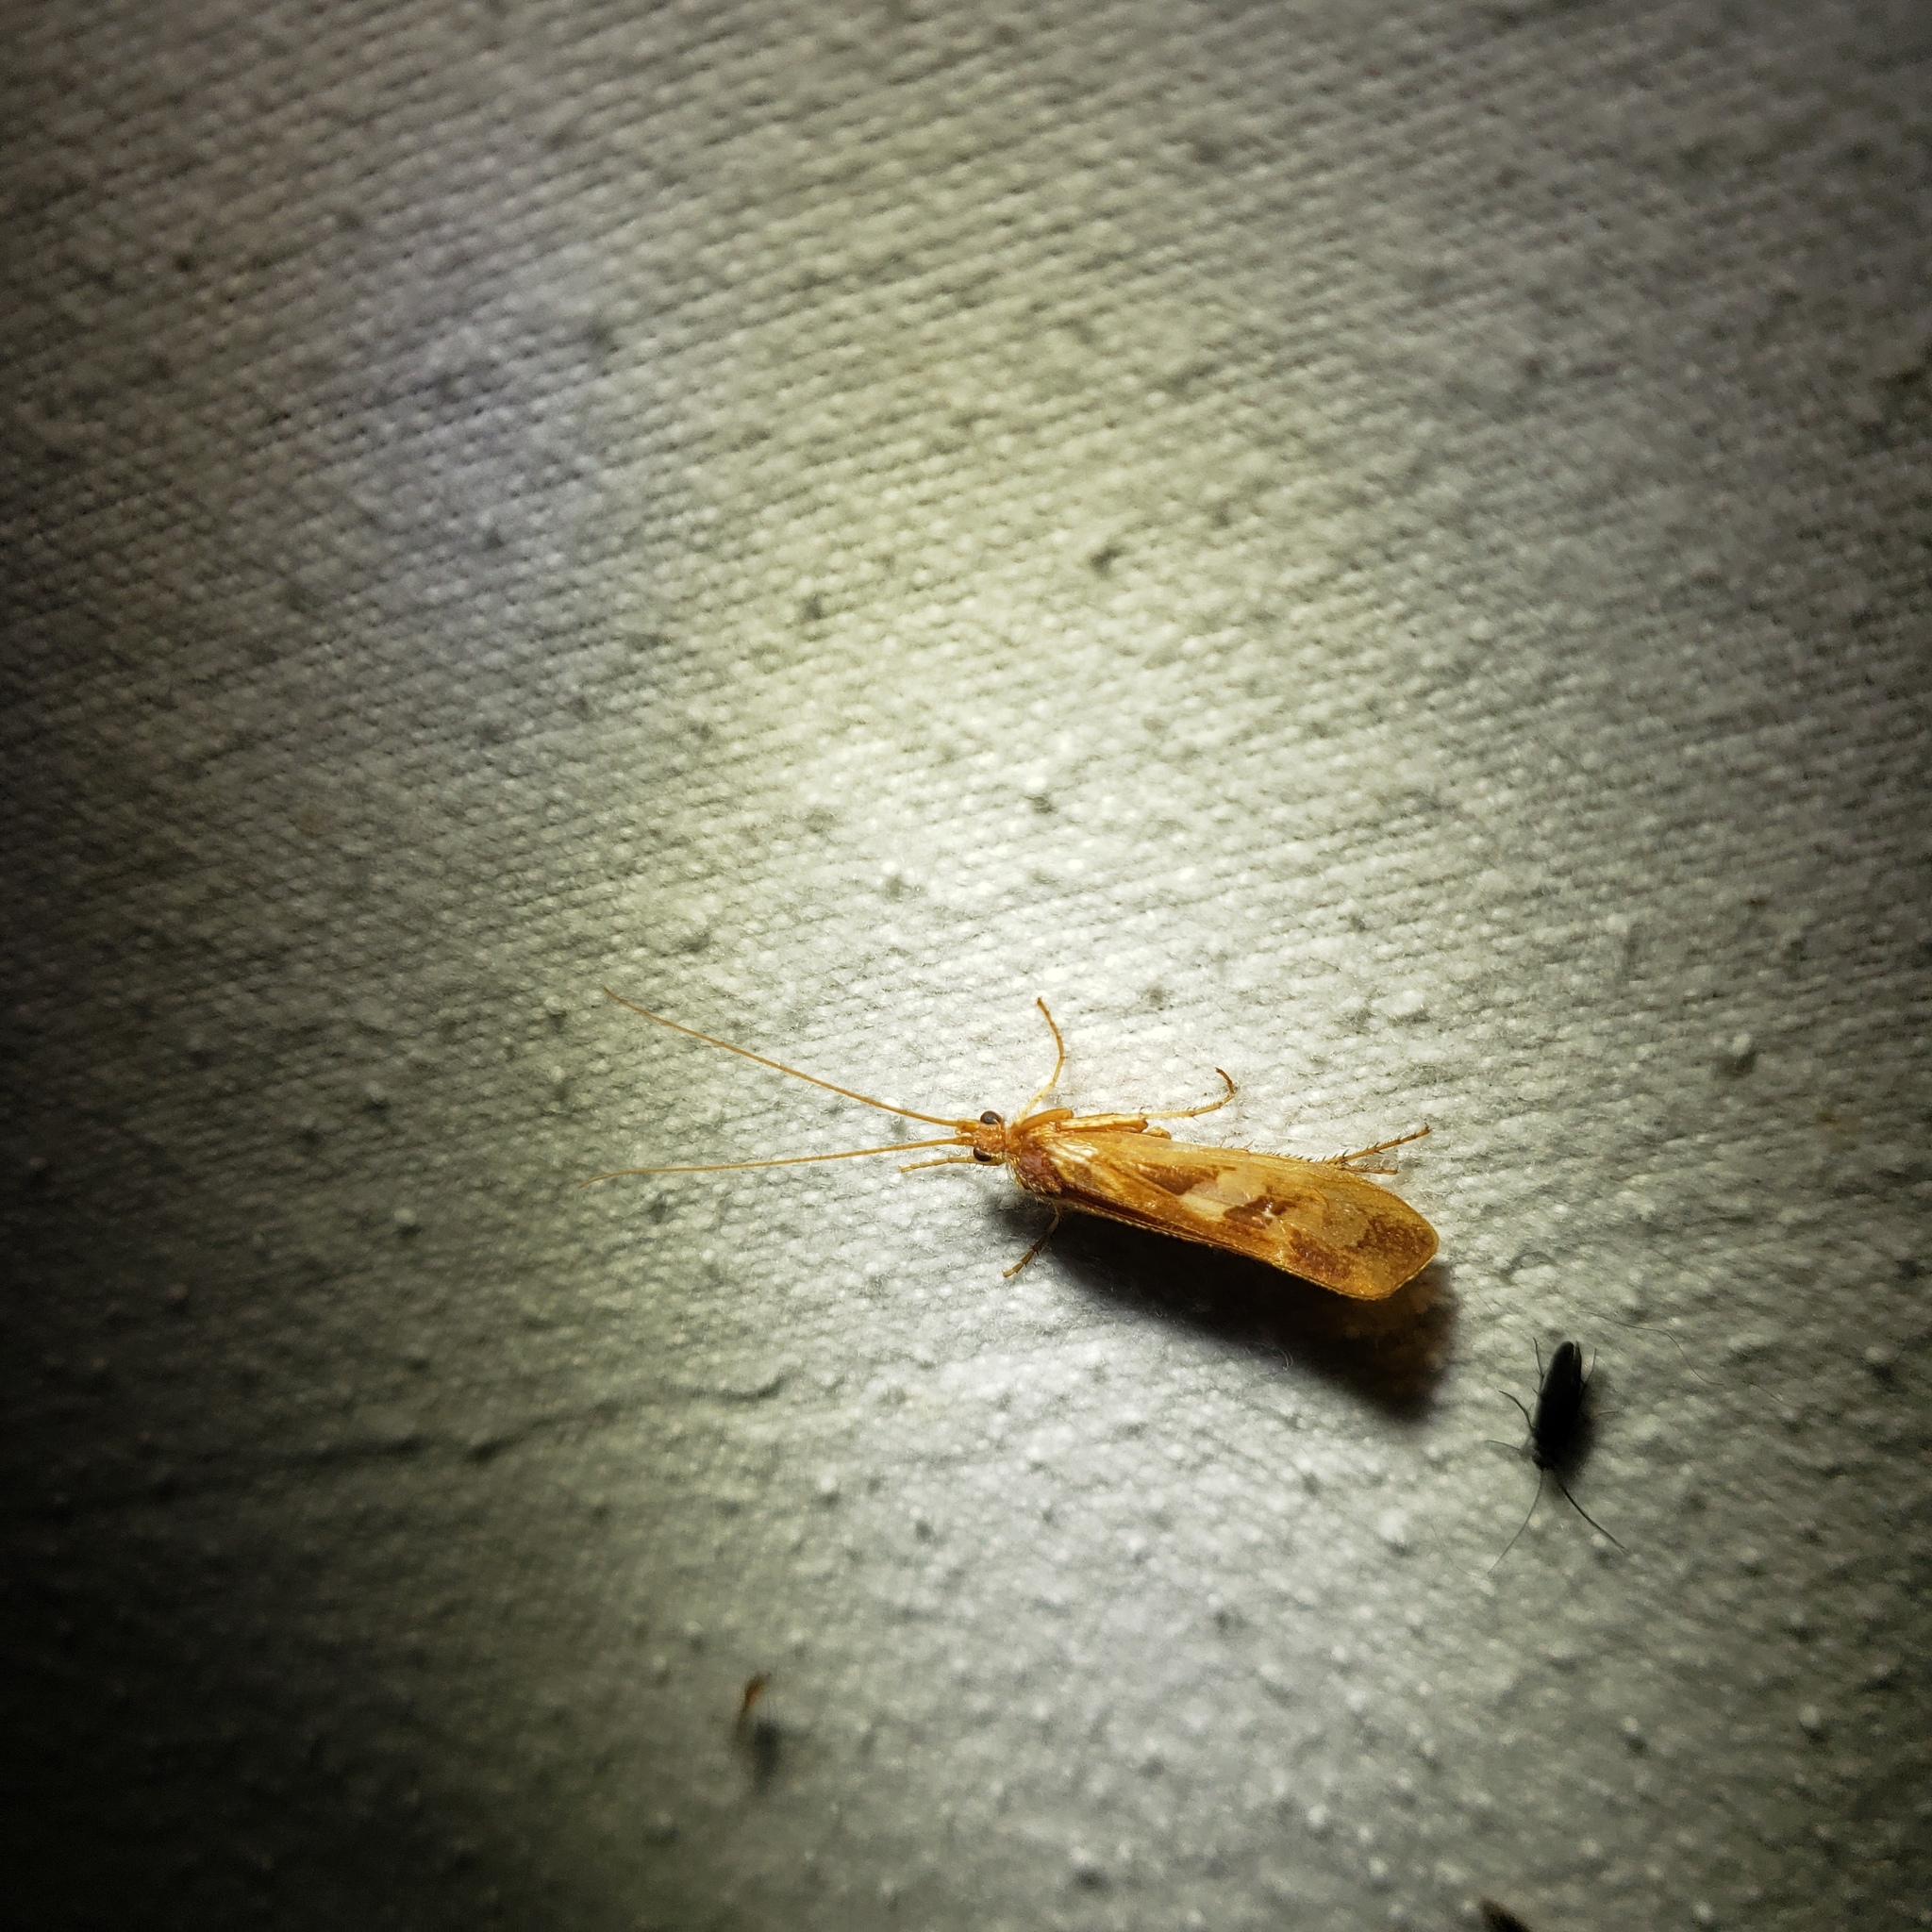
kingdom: Animalia
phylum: Arthropoda
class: Insecta
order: Trichoptera
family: Limnephilidae
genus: Limnephilus
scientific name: Limnephilus rhombicus
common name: Diamond northern caddisfly
